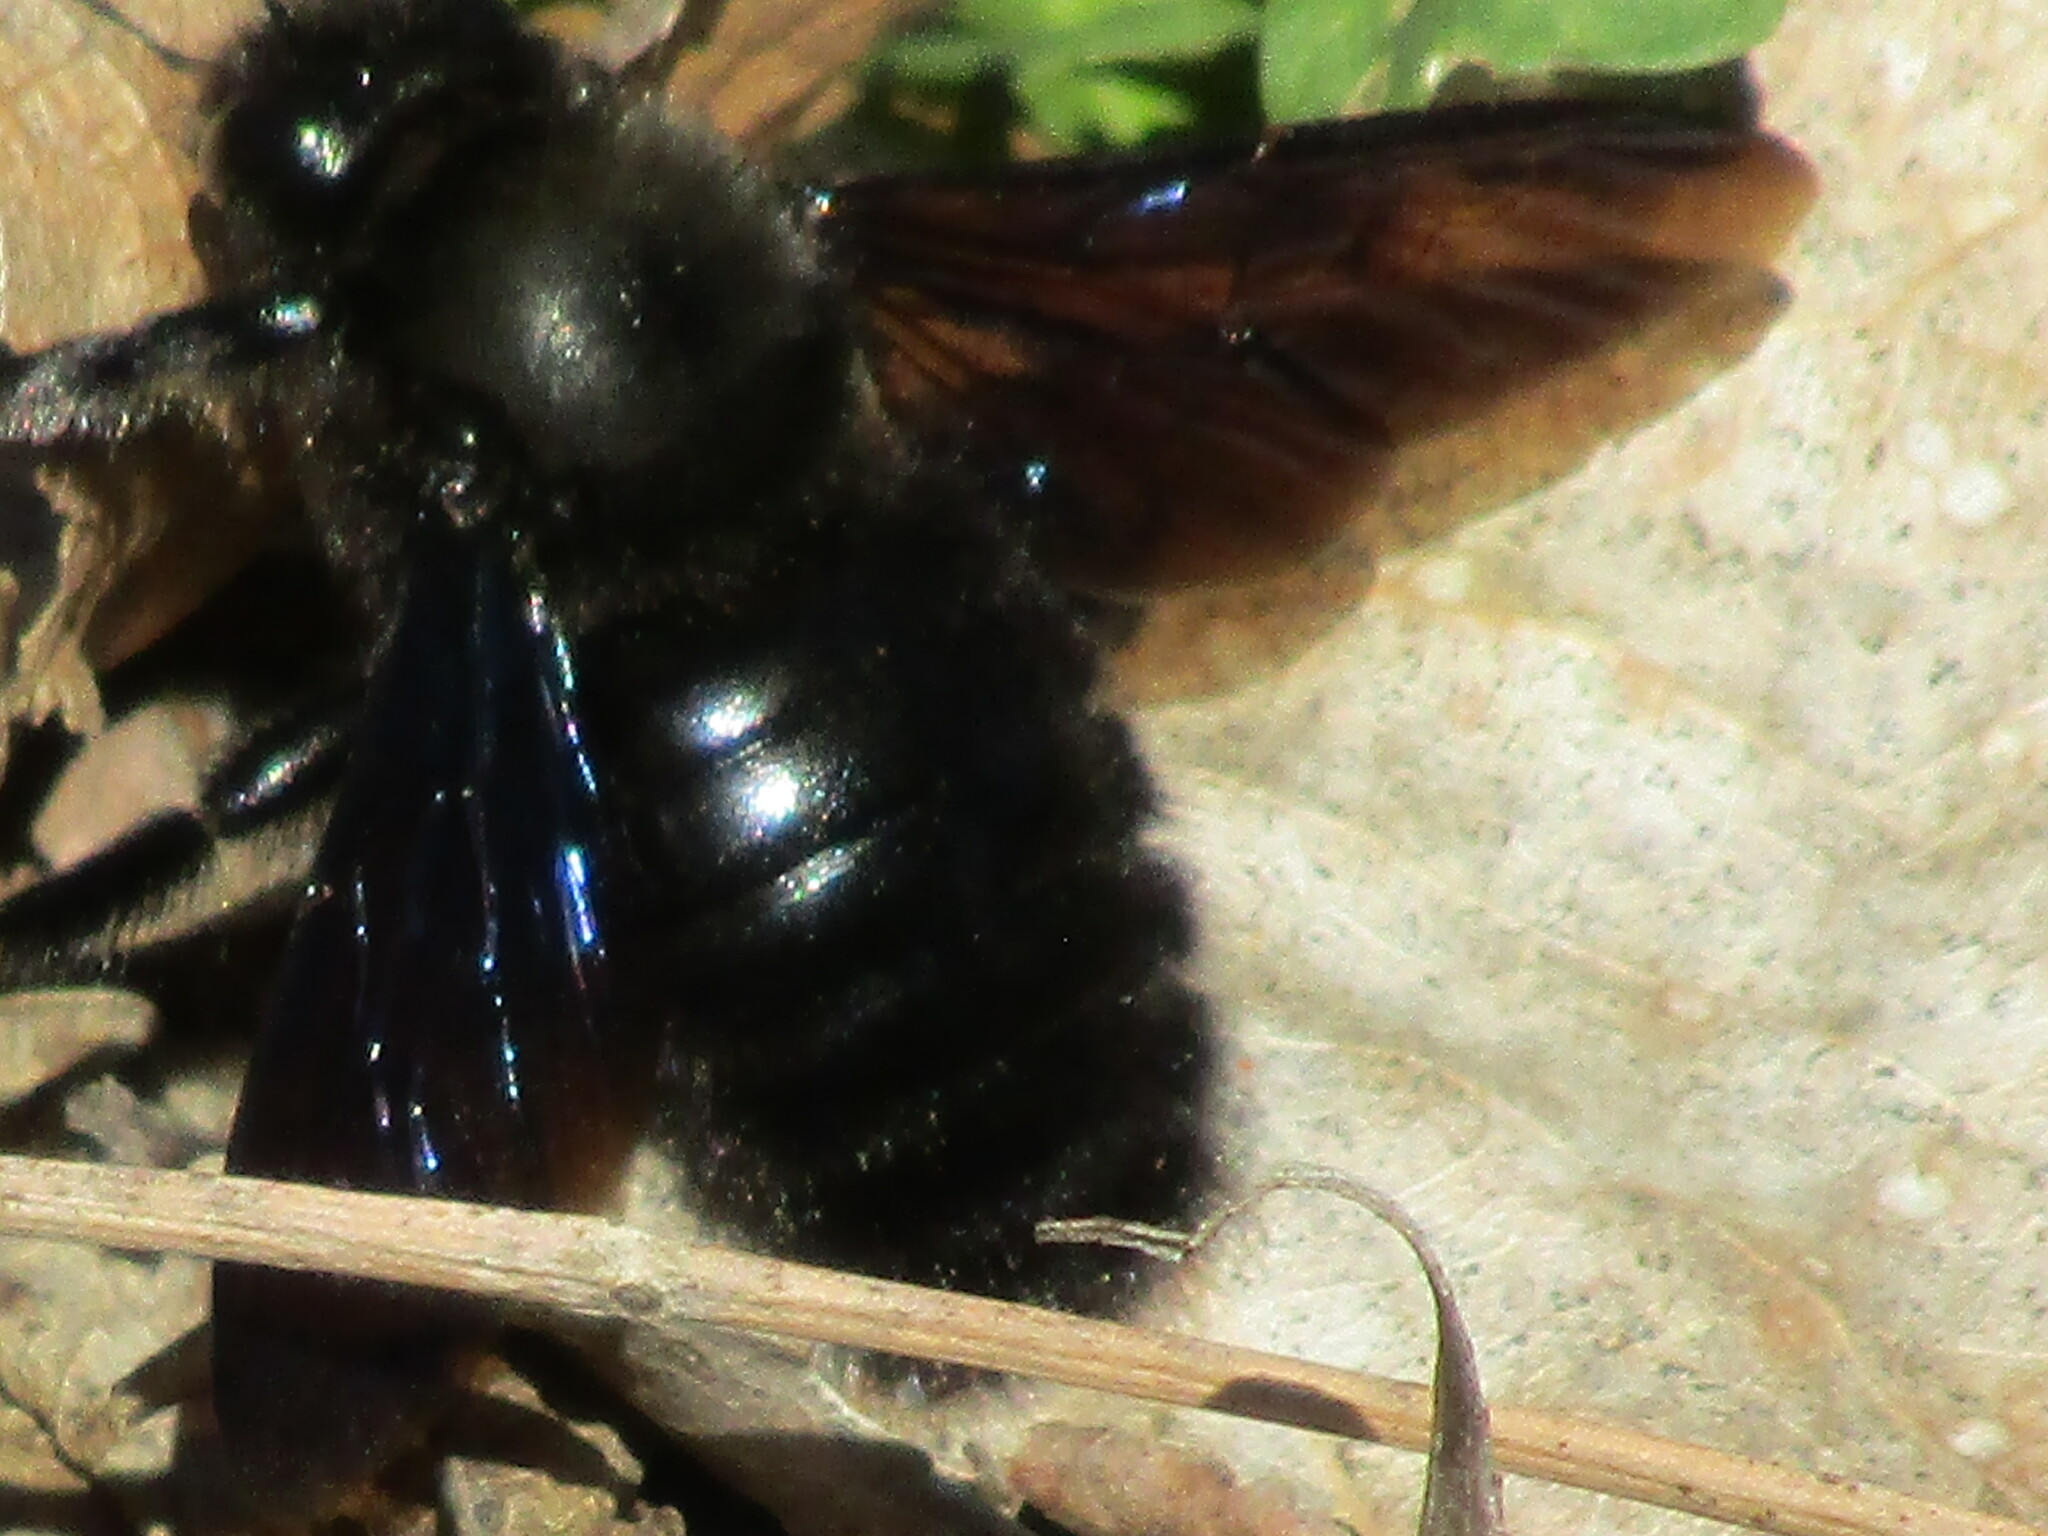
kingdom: Animalia
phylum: Arthropoda
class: Insecta
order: Hymenoptera
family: Apidae
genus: Xylocopa
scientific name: Xylocopa violacea
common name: Violet carpenter bee
